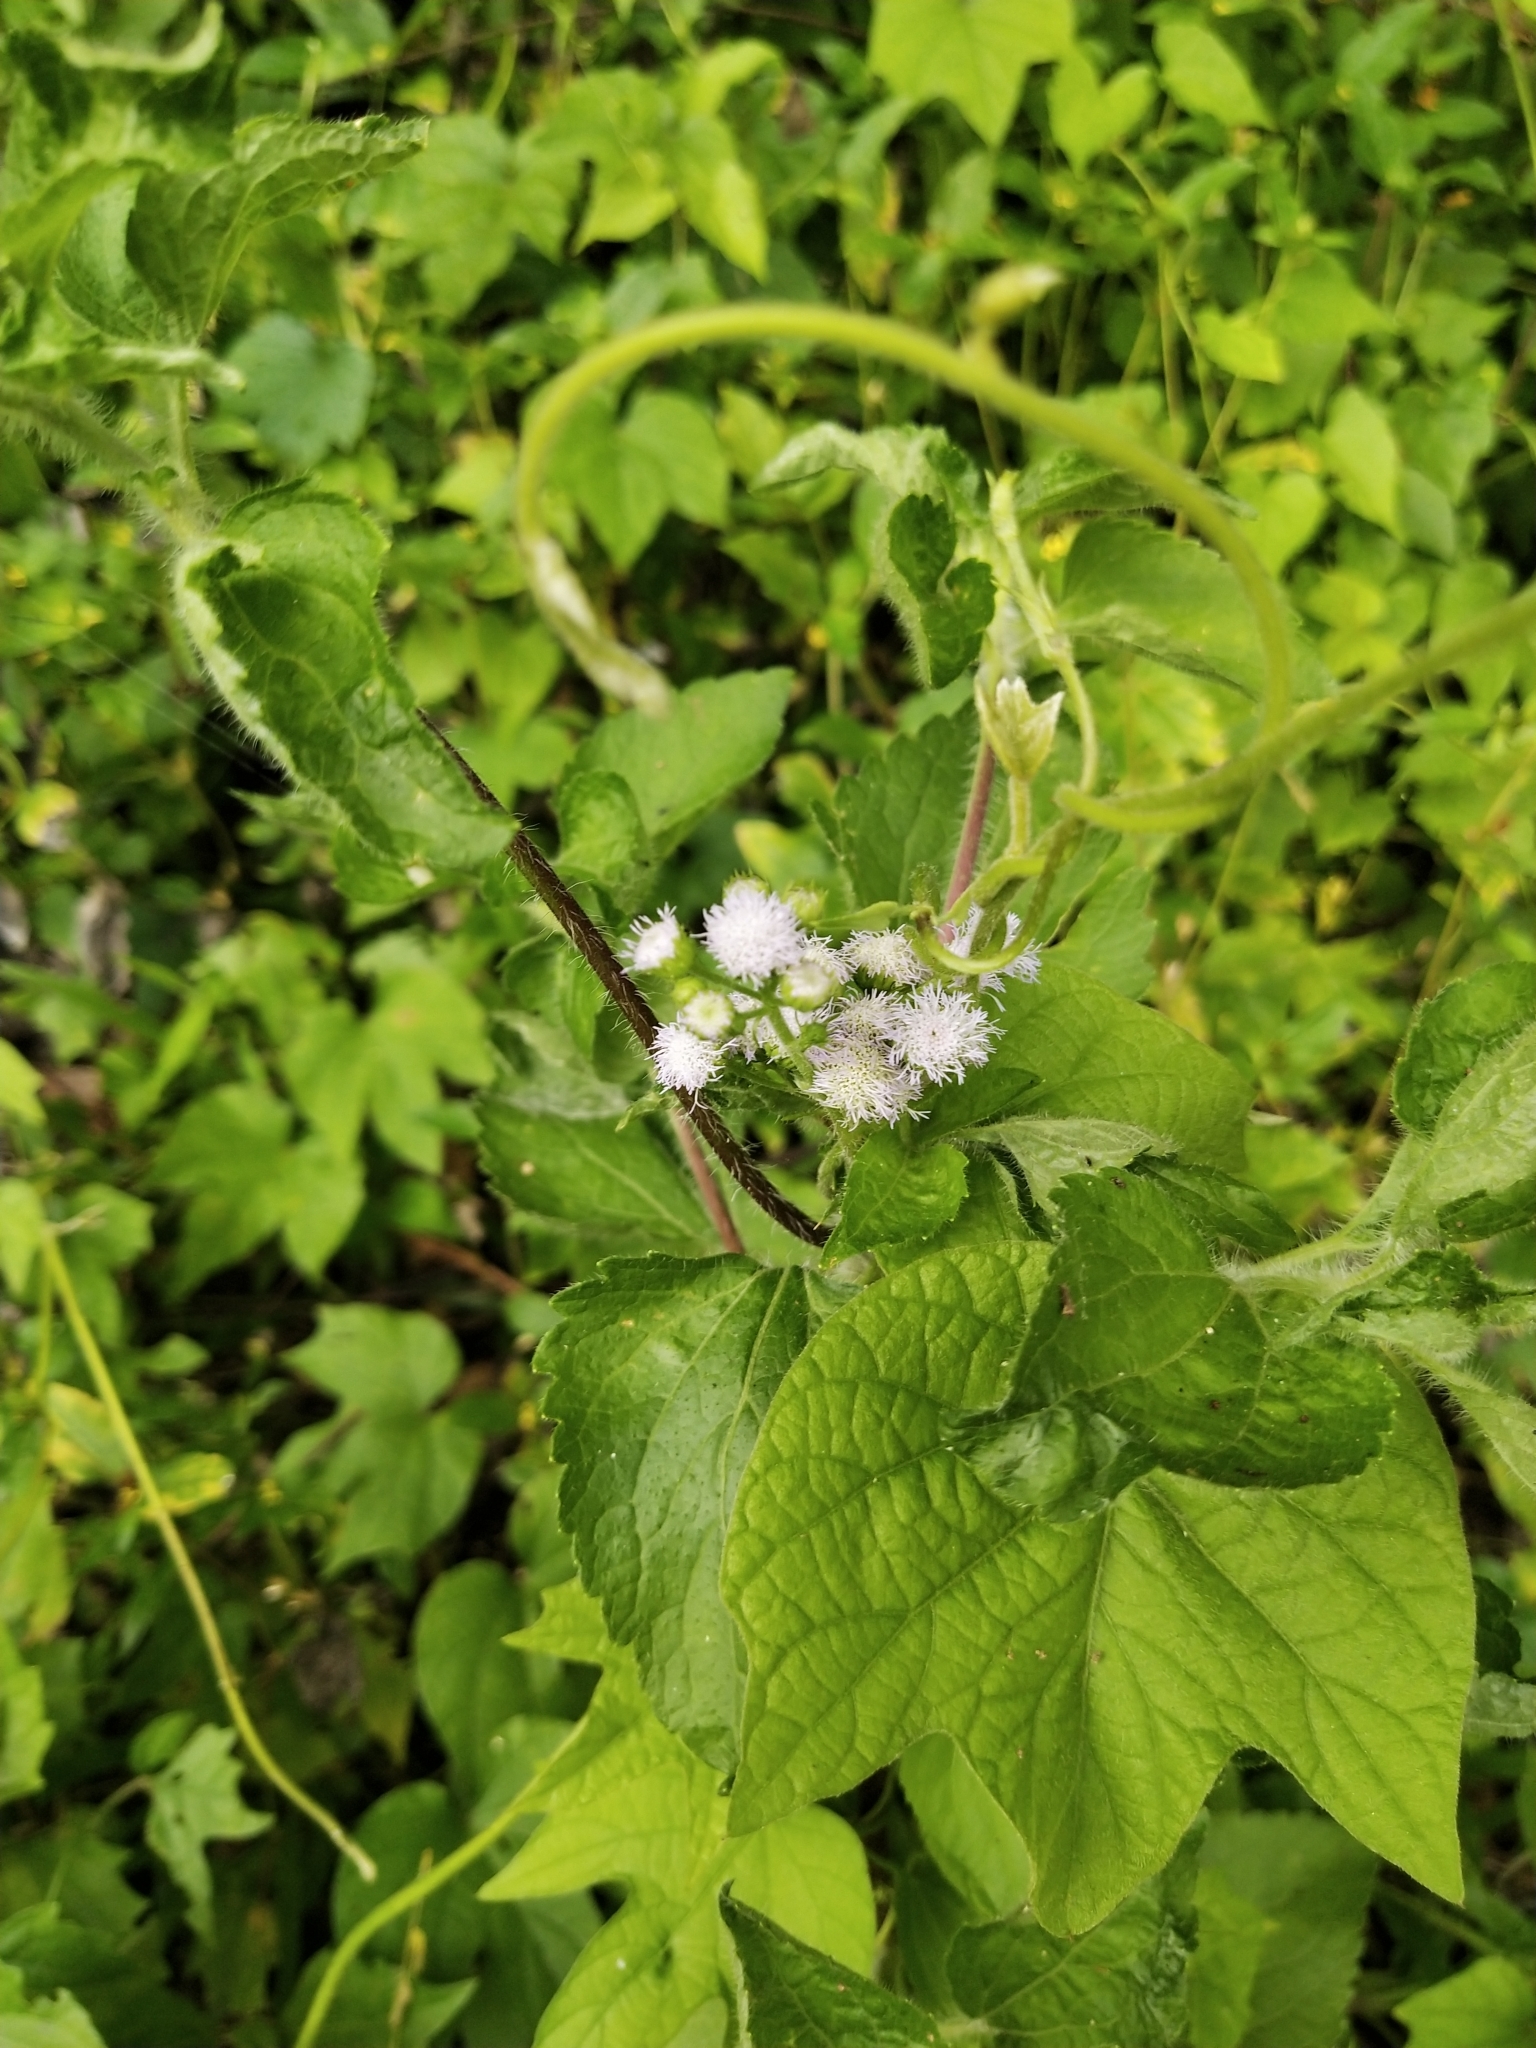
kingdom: Plantae
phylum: Tracheophyta
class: Magnoliopsida
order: Asterales
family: Asteraceae
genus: Ageratum
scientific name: Ageratum conyzoides
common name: Tropical whiteweed
